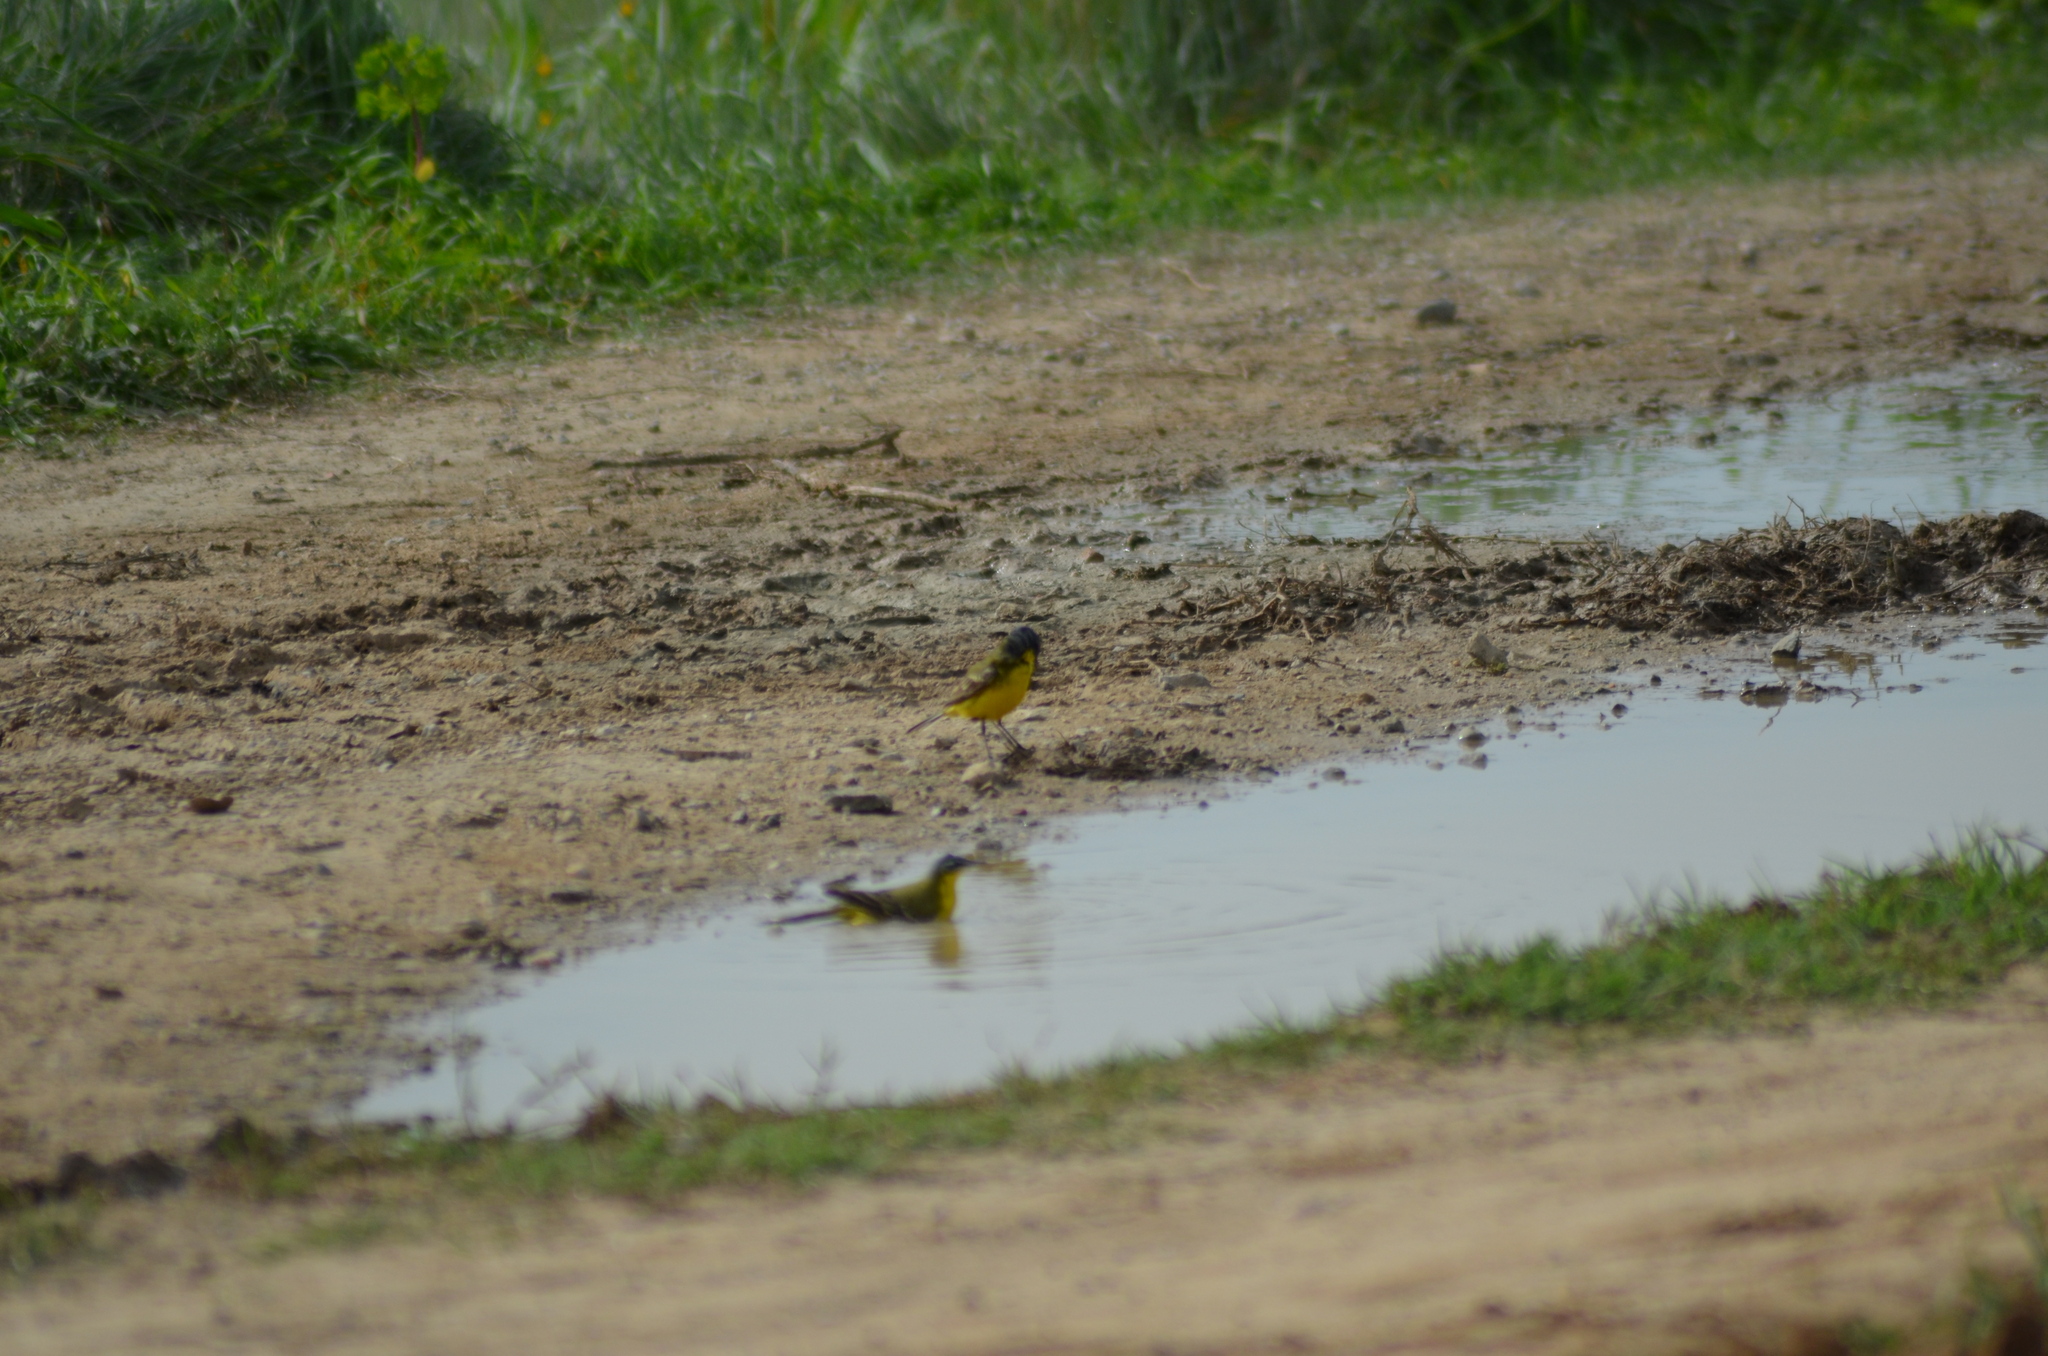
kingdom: Animalia
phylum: Chordata
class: Aves
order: Passeriformes
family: Motacillidae
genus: Motacilla
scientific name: Motacilla flava
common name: Western yellow wagtail
